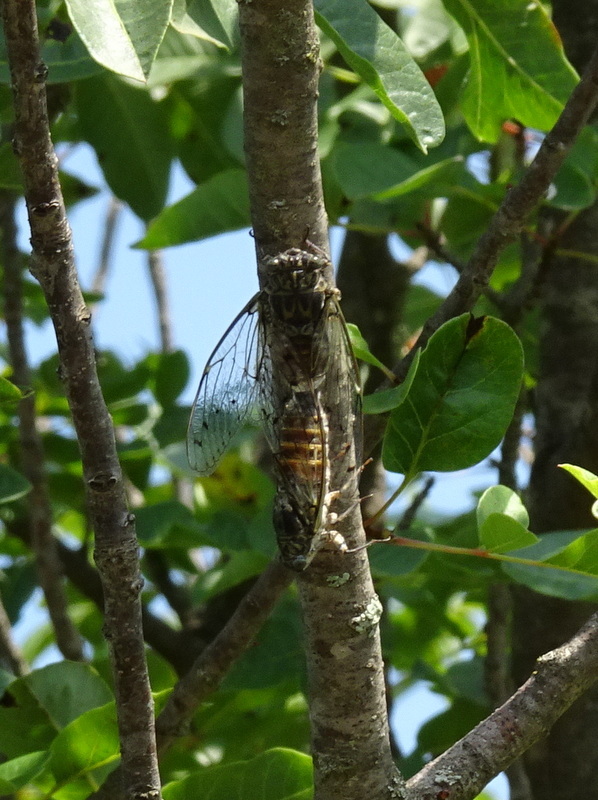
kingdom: Animalia
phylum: Arthropoda
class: Insecta
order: Hemiptera
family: Cicadidae
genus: Cicada
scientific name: Cicada orni
